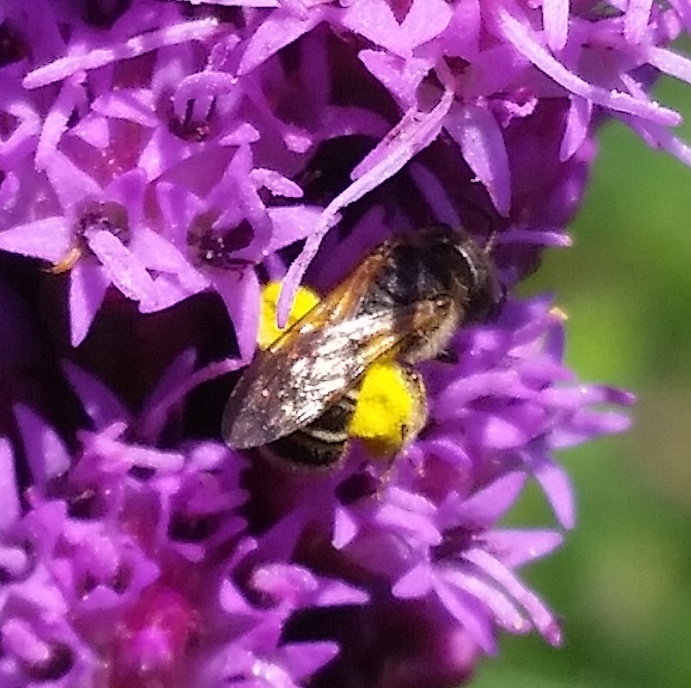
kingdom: Animalia
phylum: Arthropoda
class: Insecta
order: Hymenoptera
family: Halictidae
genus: Halictus
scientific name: Halictus ligatus
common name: Ligated furrow bee
